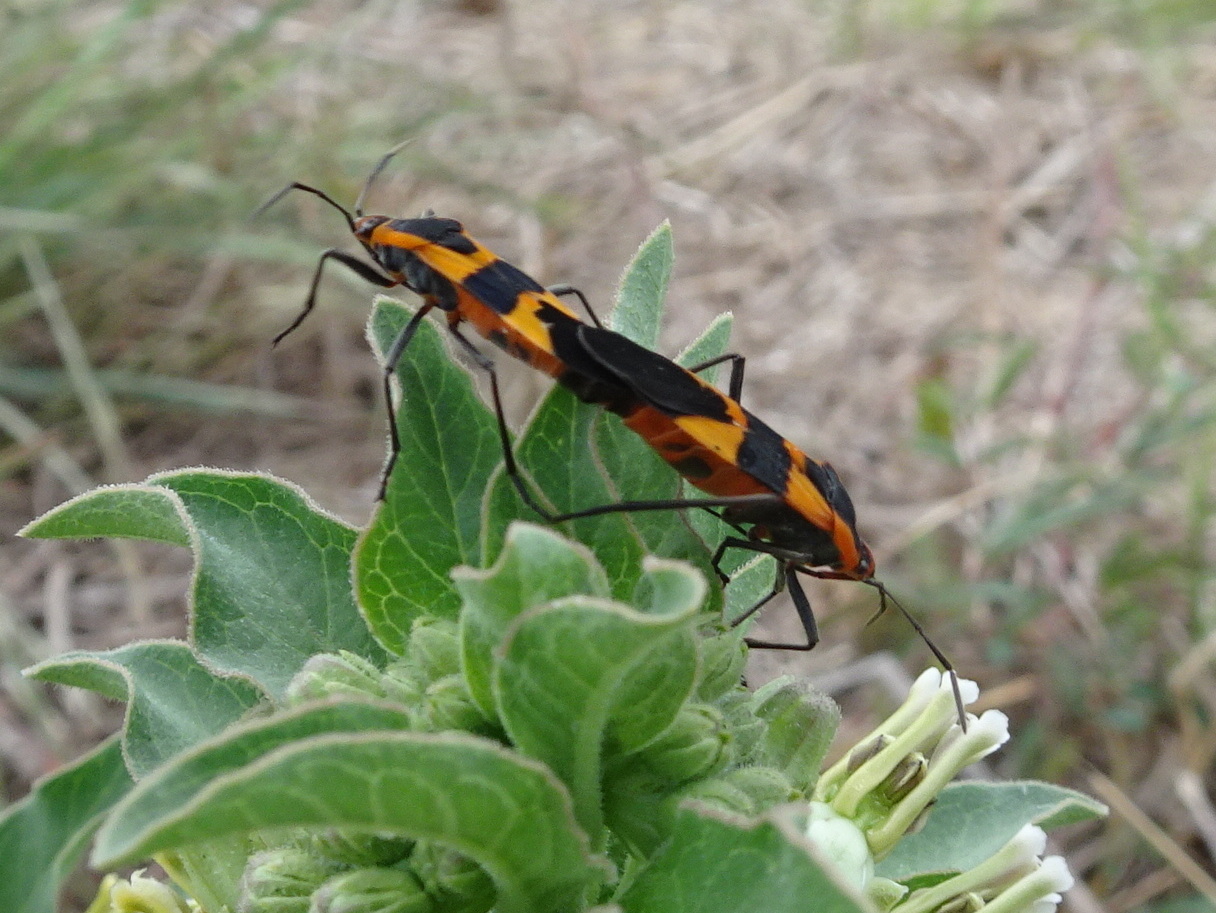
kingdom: Animalia
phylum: Arthropoda
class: Insecta
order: Hemiptera
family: Lygaeidae
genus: Oncopeltus
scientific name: Oncopeltus fasciatus
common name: Large milkweed bug
